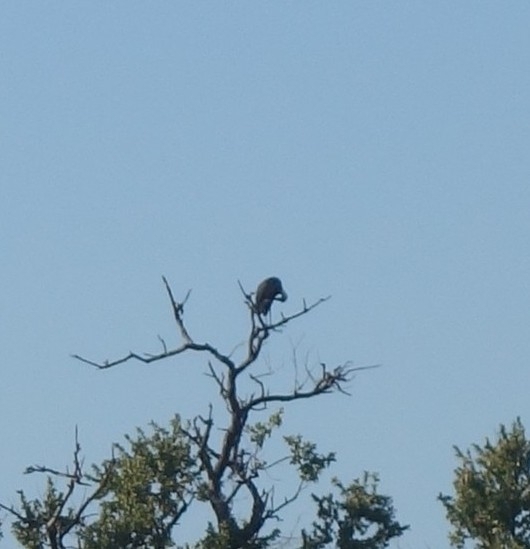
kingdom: Animalia
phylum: Chordata
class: Aves
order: Ciconiiformes
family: Ciconiidae
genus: Ciconia
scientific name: Ciconia microscelis
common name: African woollyneck
